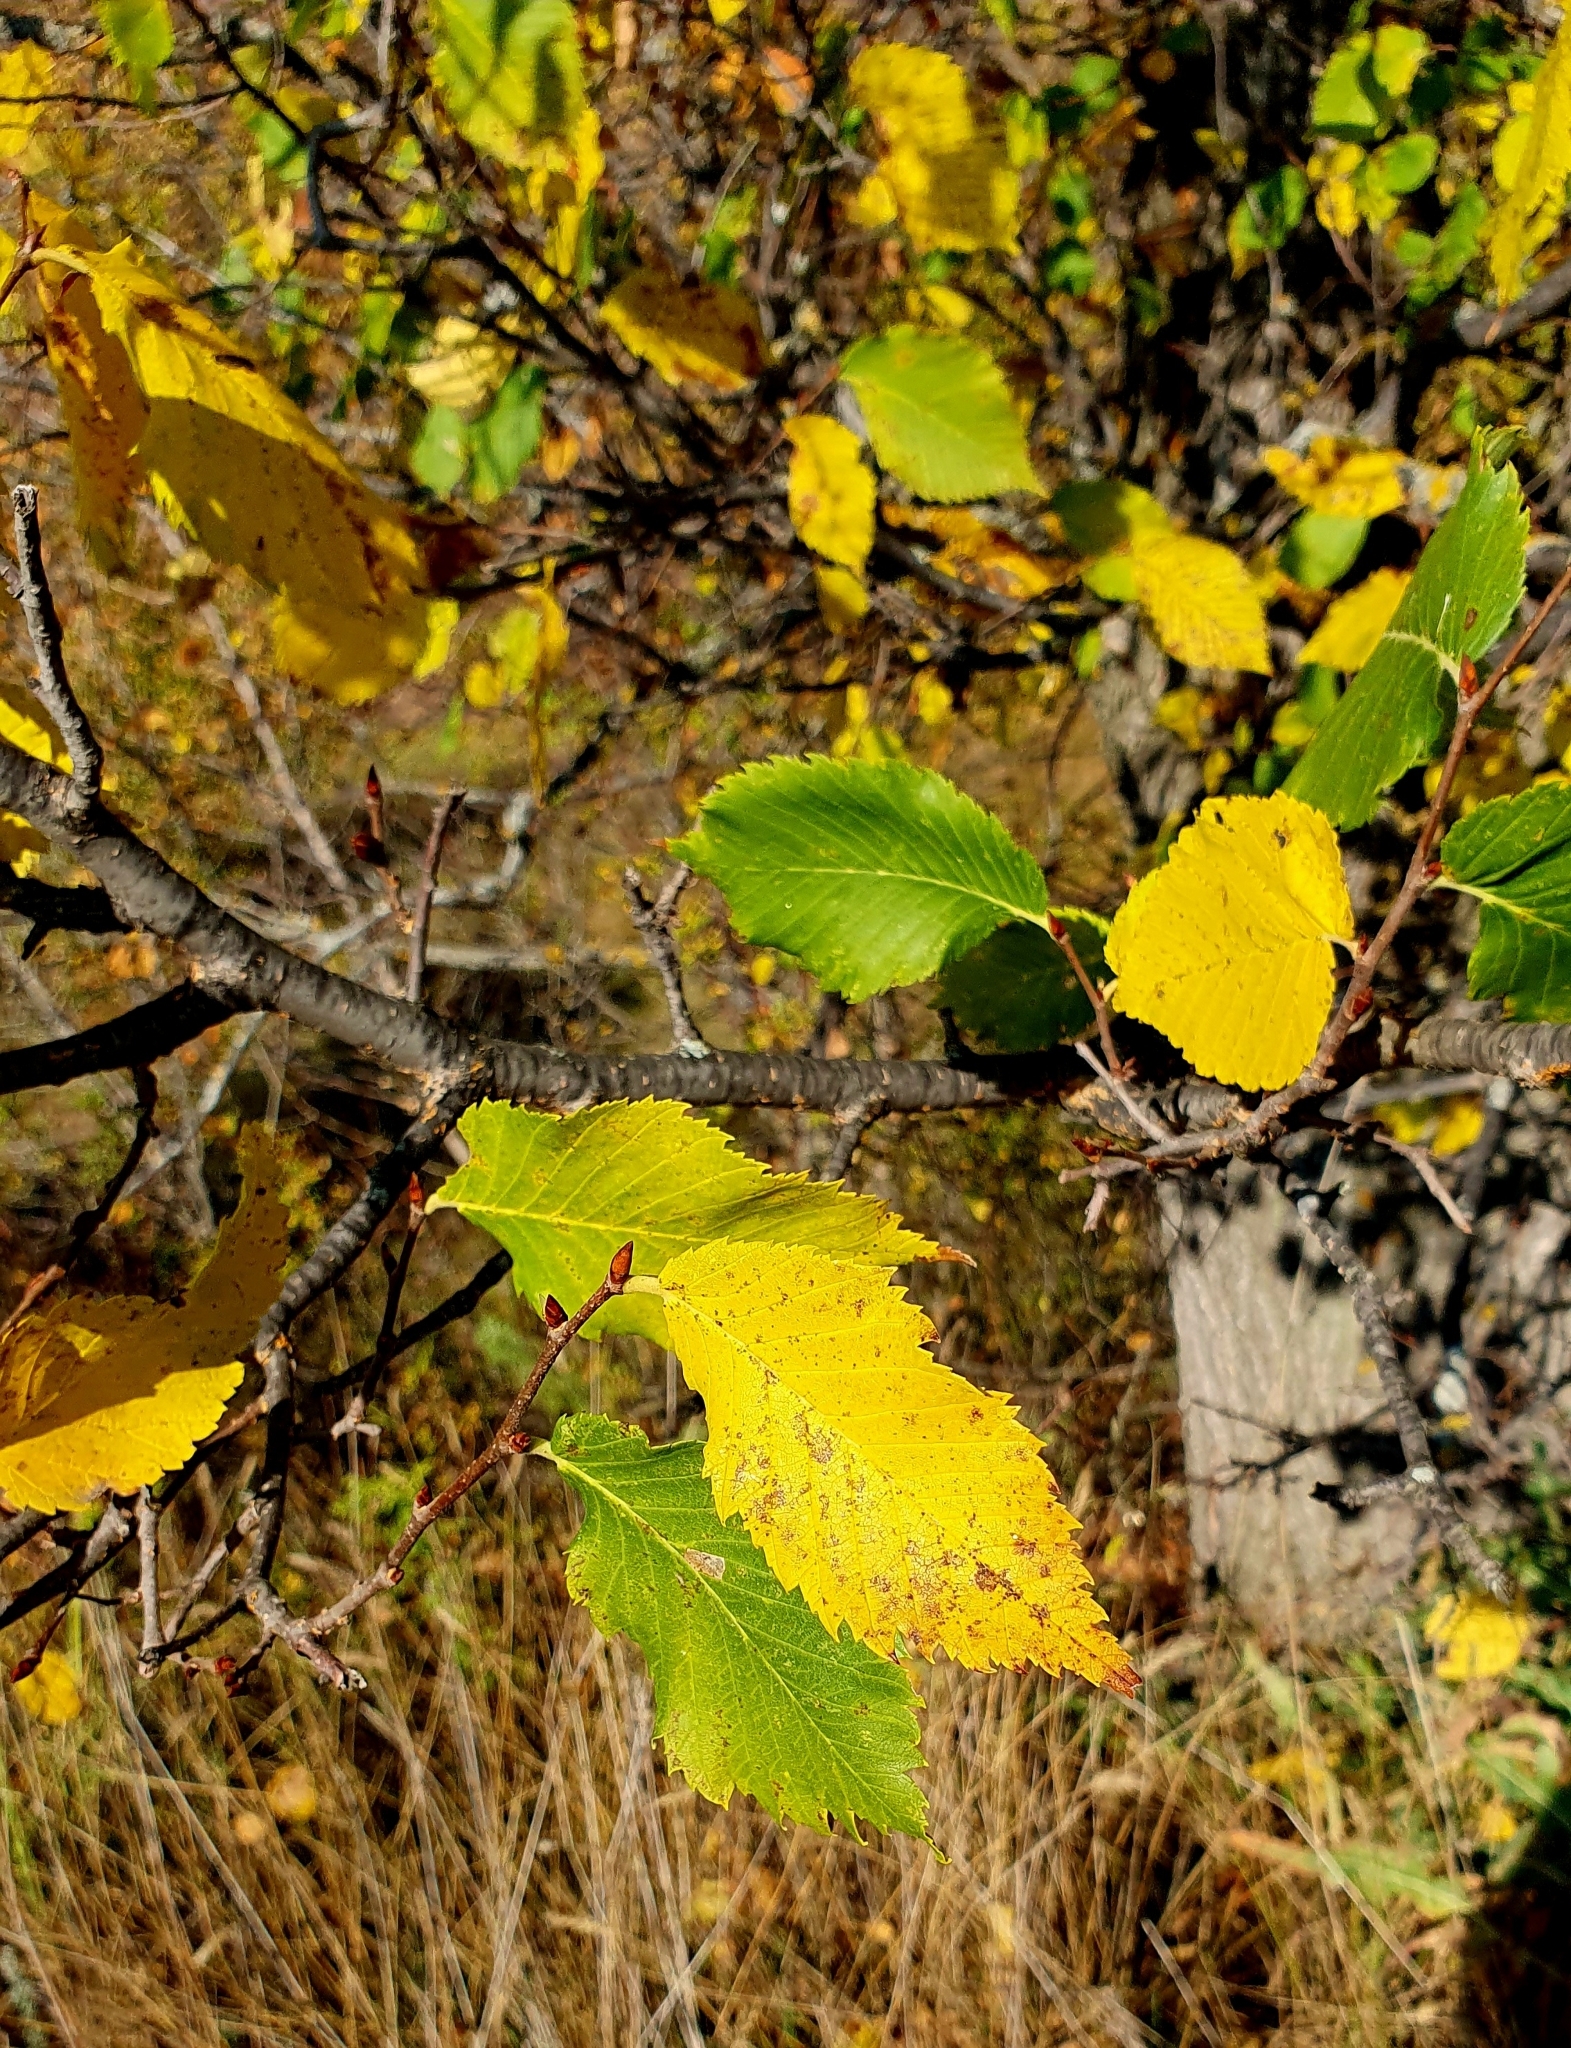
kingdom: Plantae
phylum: Tracheophyta
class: Magnoliopsida
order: Rosales
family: Ulmaceae
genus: Ulmus
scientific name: Ulmus laevis
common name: European white-elm
